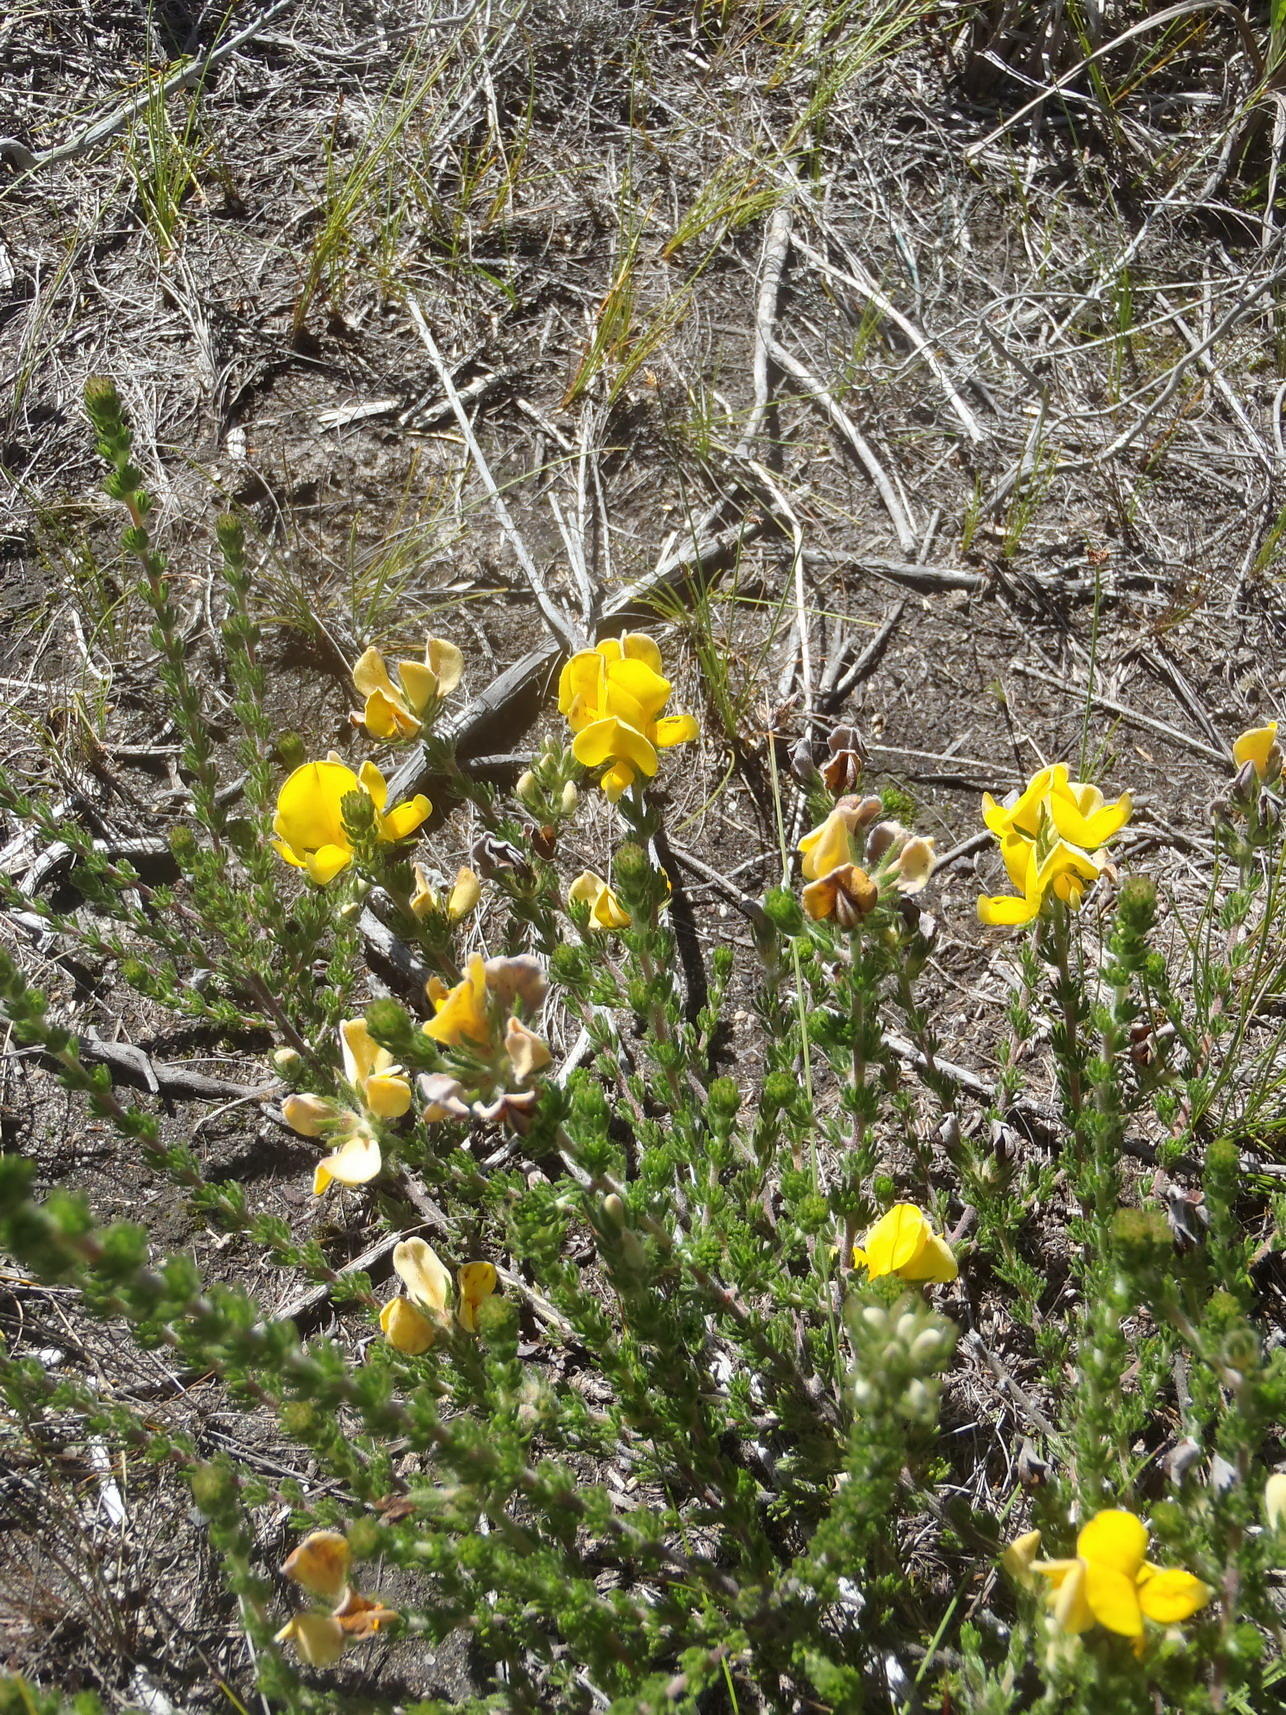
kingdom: Plantae
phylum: Tracheophyta
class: Magnoliopsida
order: Fabales
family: Fabaceae
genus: Aspalathus
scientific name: Aspalathus ciliaris
